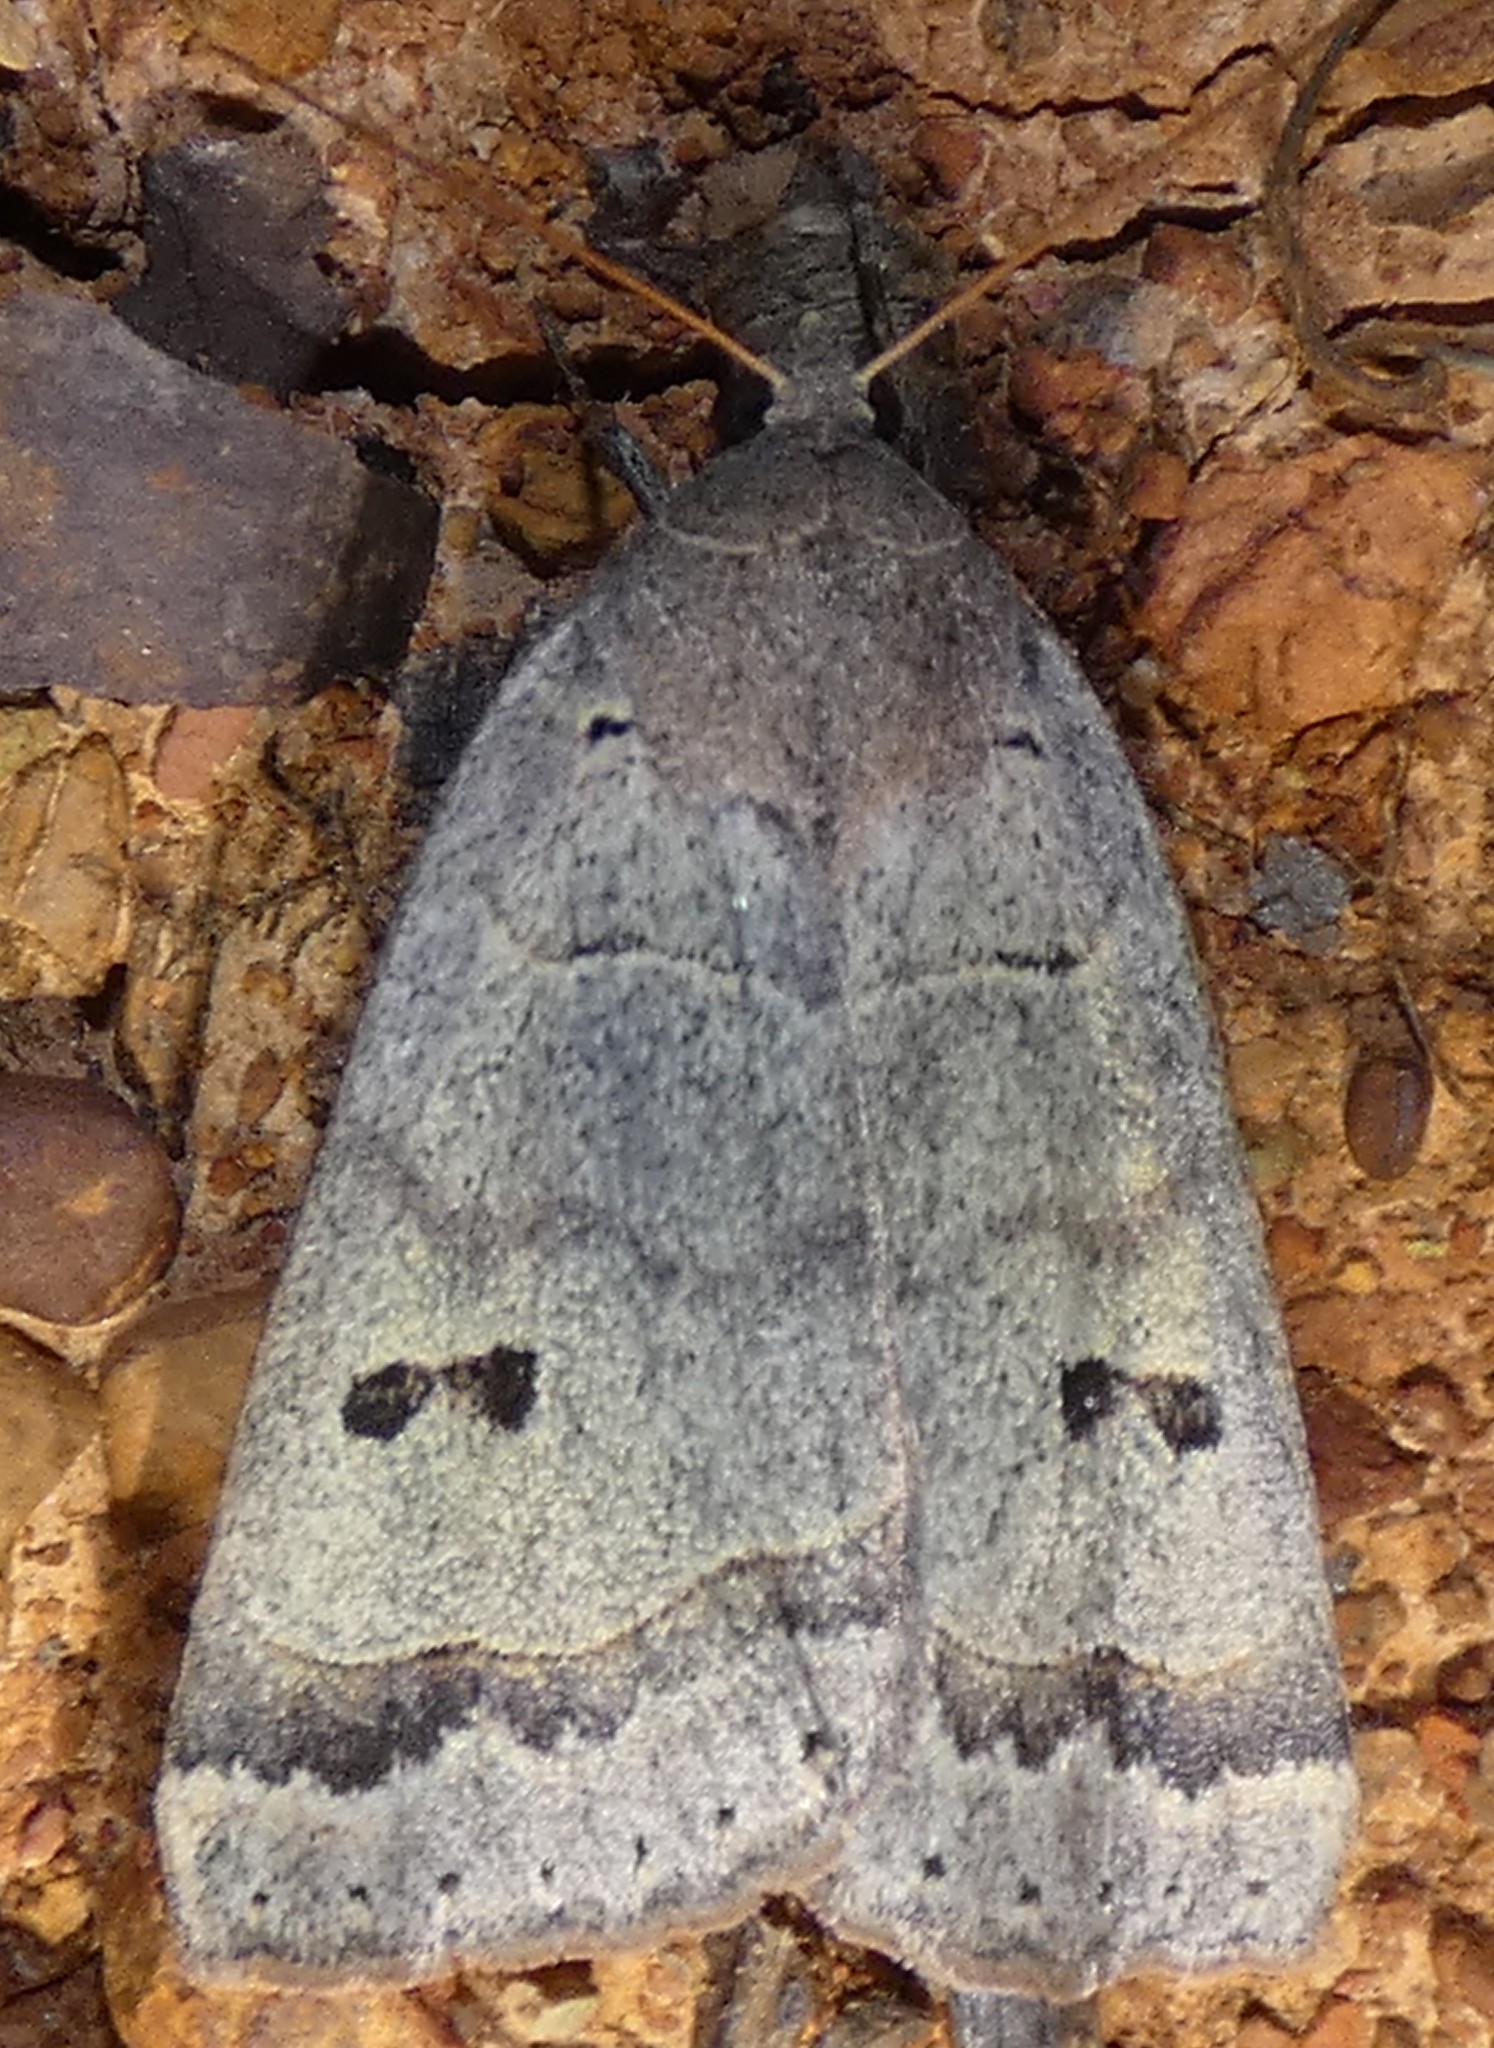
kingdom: Animalia
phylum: Arthropoda
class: Insecta
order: Lepidoptera
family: Erebidae
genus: Phoberia
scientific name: Phoberia atomaris
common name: Common oak moth
